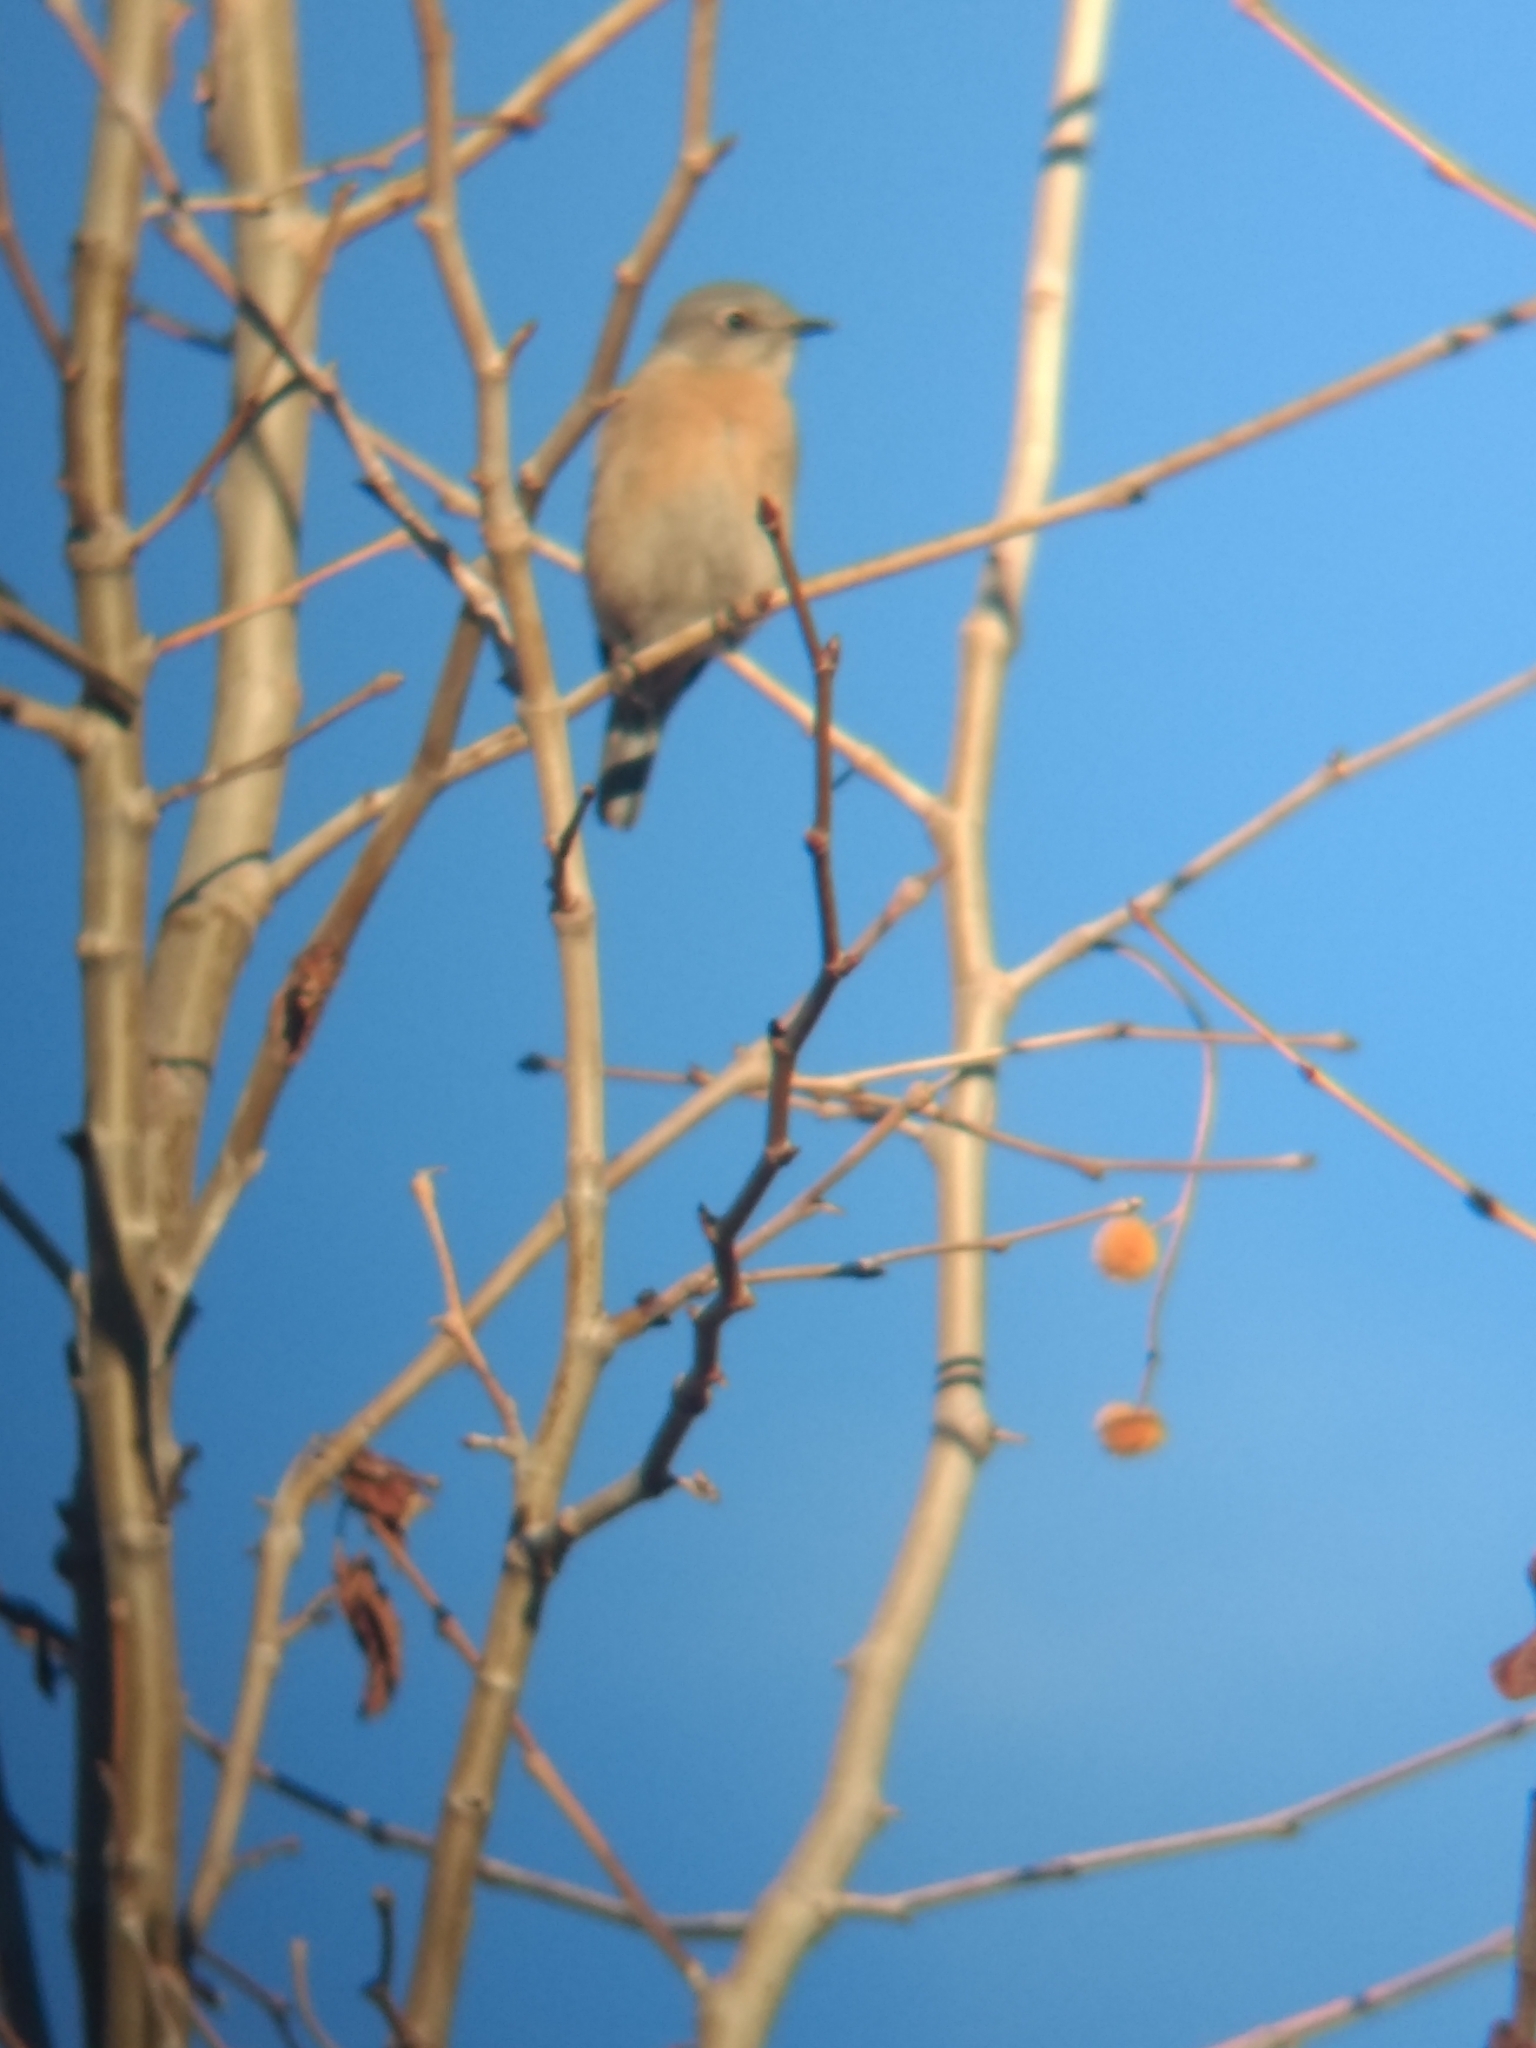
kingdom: Animalia
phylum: Chordata
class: Aves
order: Passeriformes
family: Turdidae
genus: Sialia
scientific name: Sialia mexicana
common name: Western bluebird
